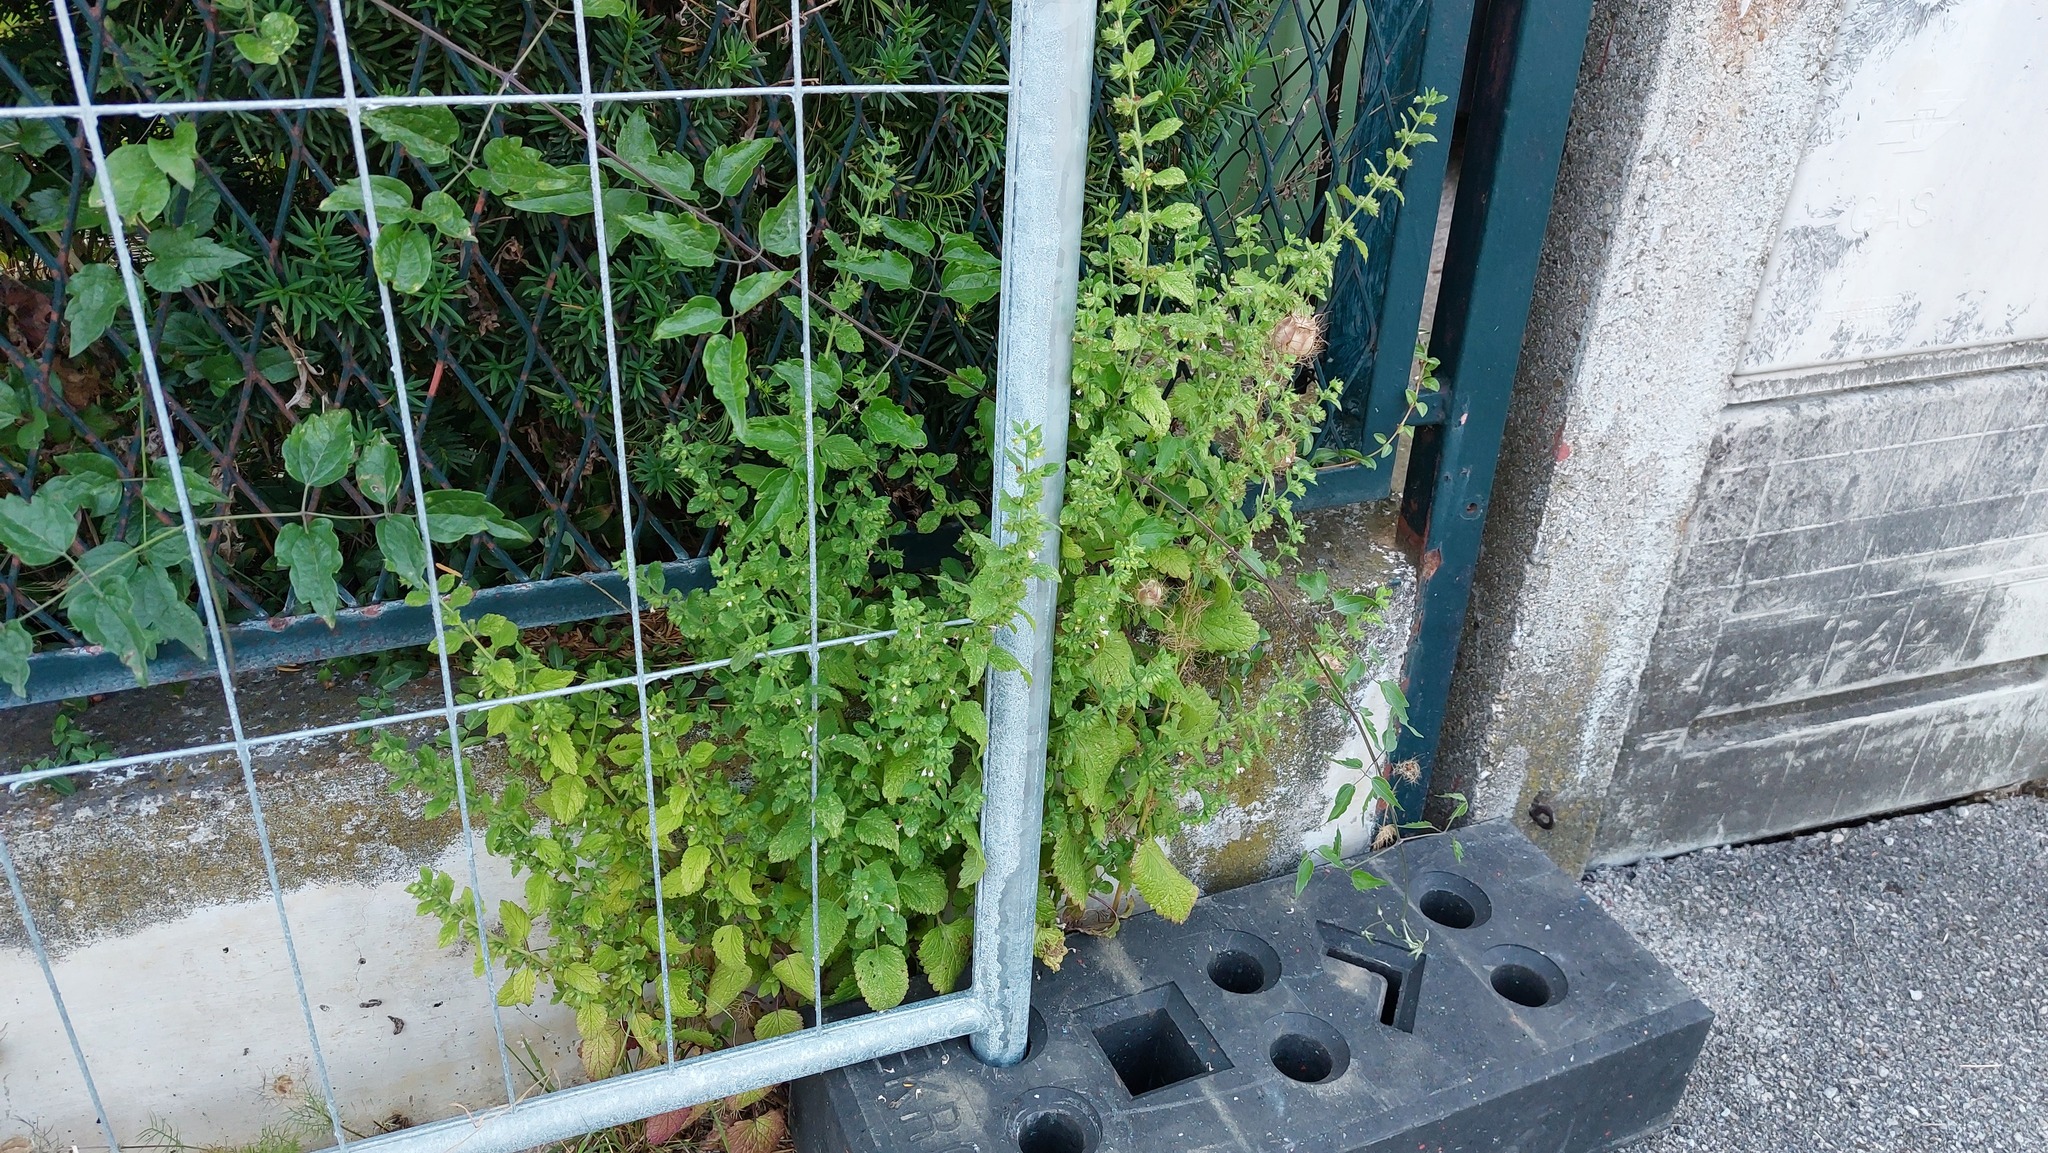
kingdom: Plantae
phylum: Tracheophyta
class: Magnoliopsida
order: Lamiales
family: Lamiaceae
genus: Melissa
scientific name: Melissa officinalis
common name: Balm
